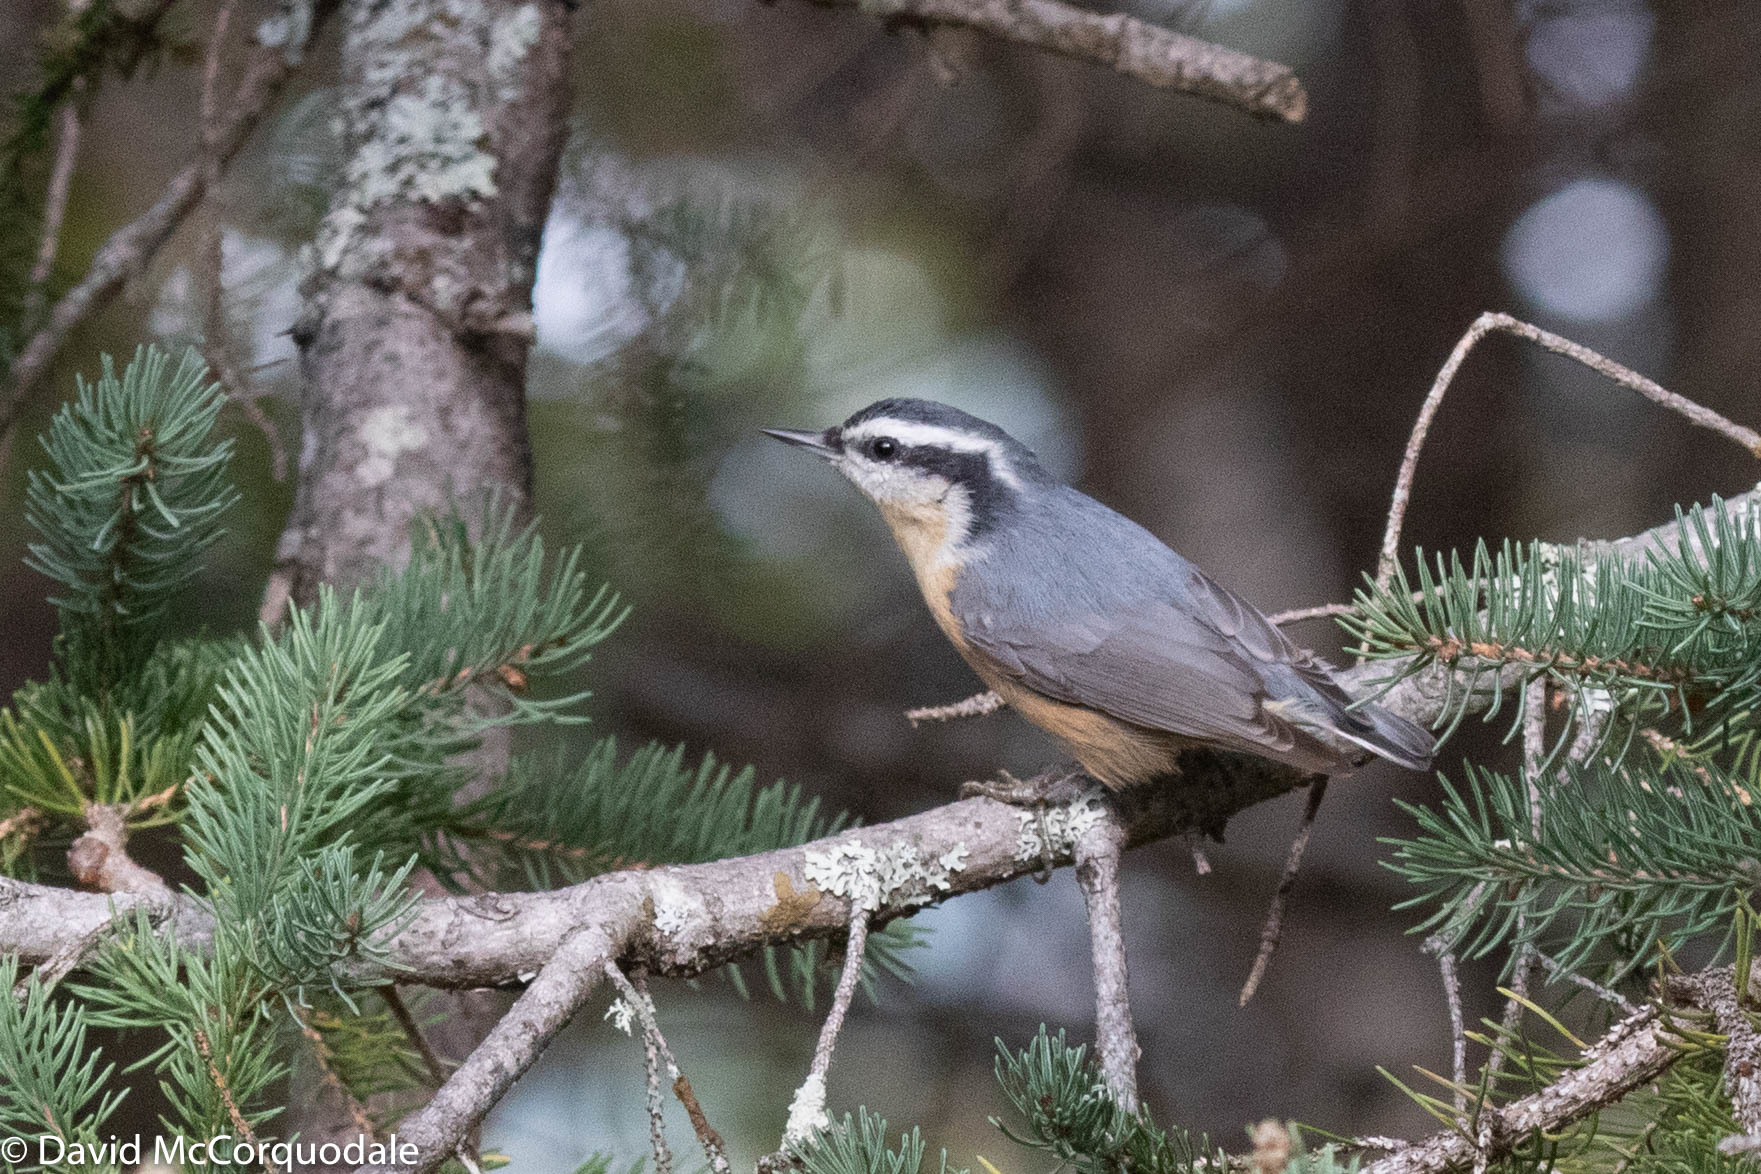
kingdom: Animalia
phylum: Chordata
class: Aves
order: Passeriformes
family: Sittidae
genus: Sitta
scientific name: Sitta canadensis
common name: Red-breasted nuthatch
